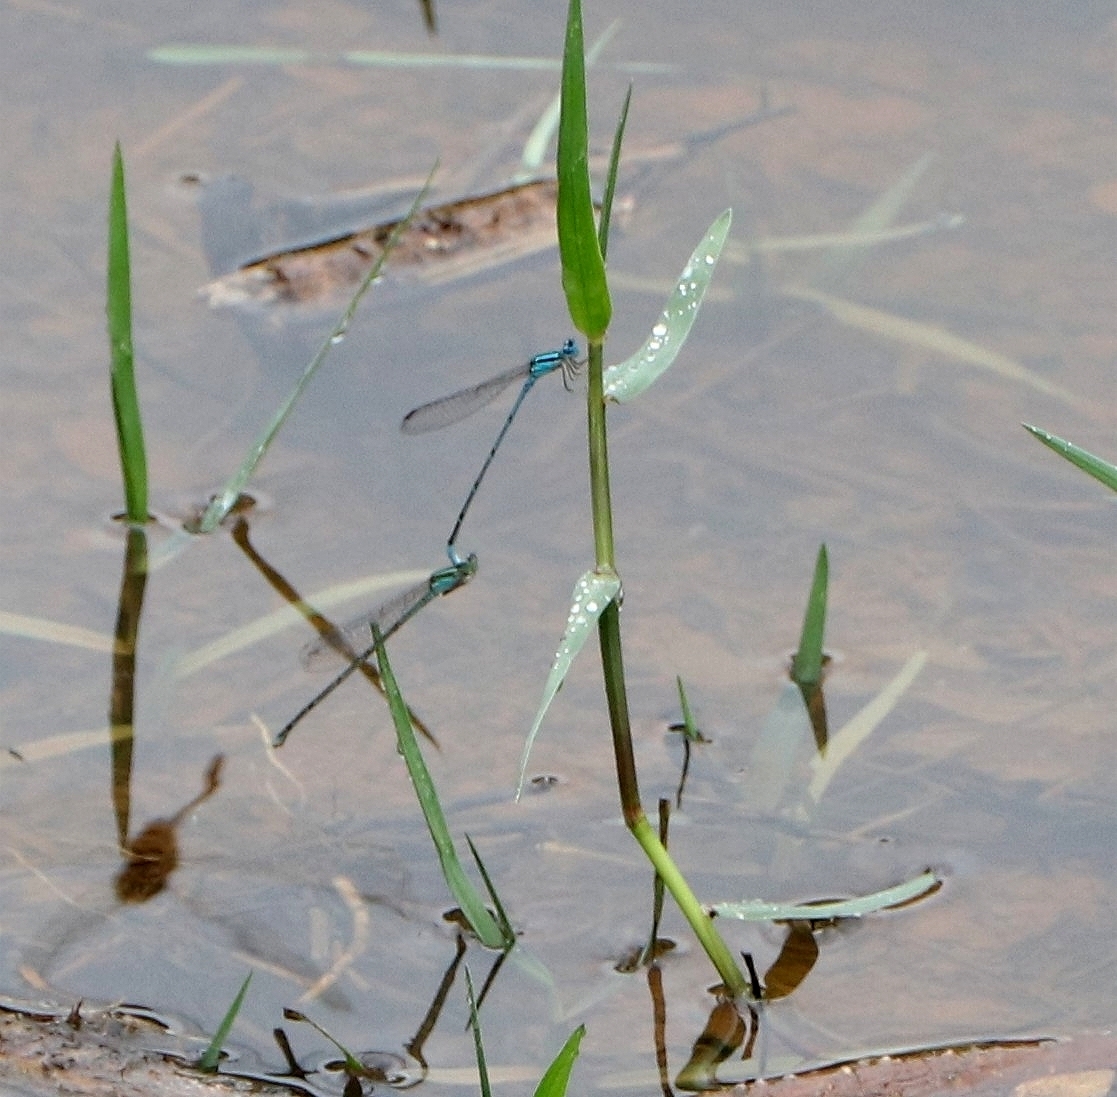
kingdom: Animalia
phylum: Arthropoda
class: Insecta
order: Odonata
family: Coenagrionidae
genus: Pseudagrion
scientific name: Pseudagrion microcephalum
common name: Blue riverdamsel
